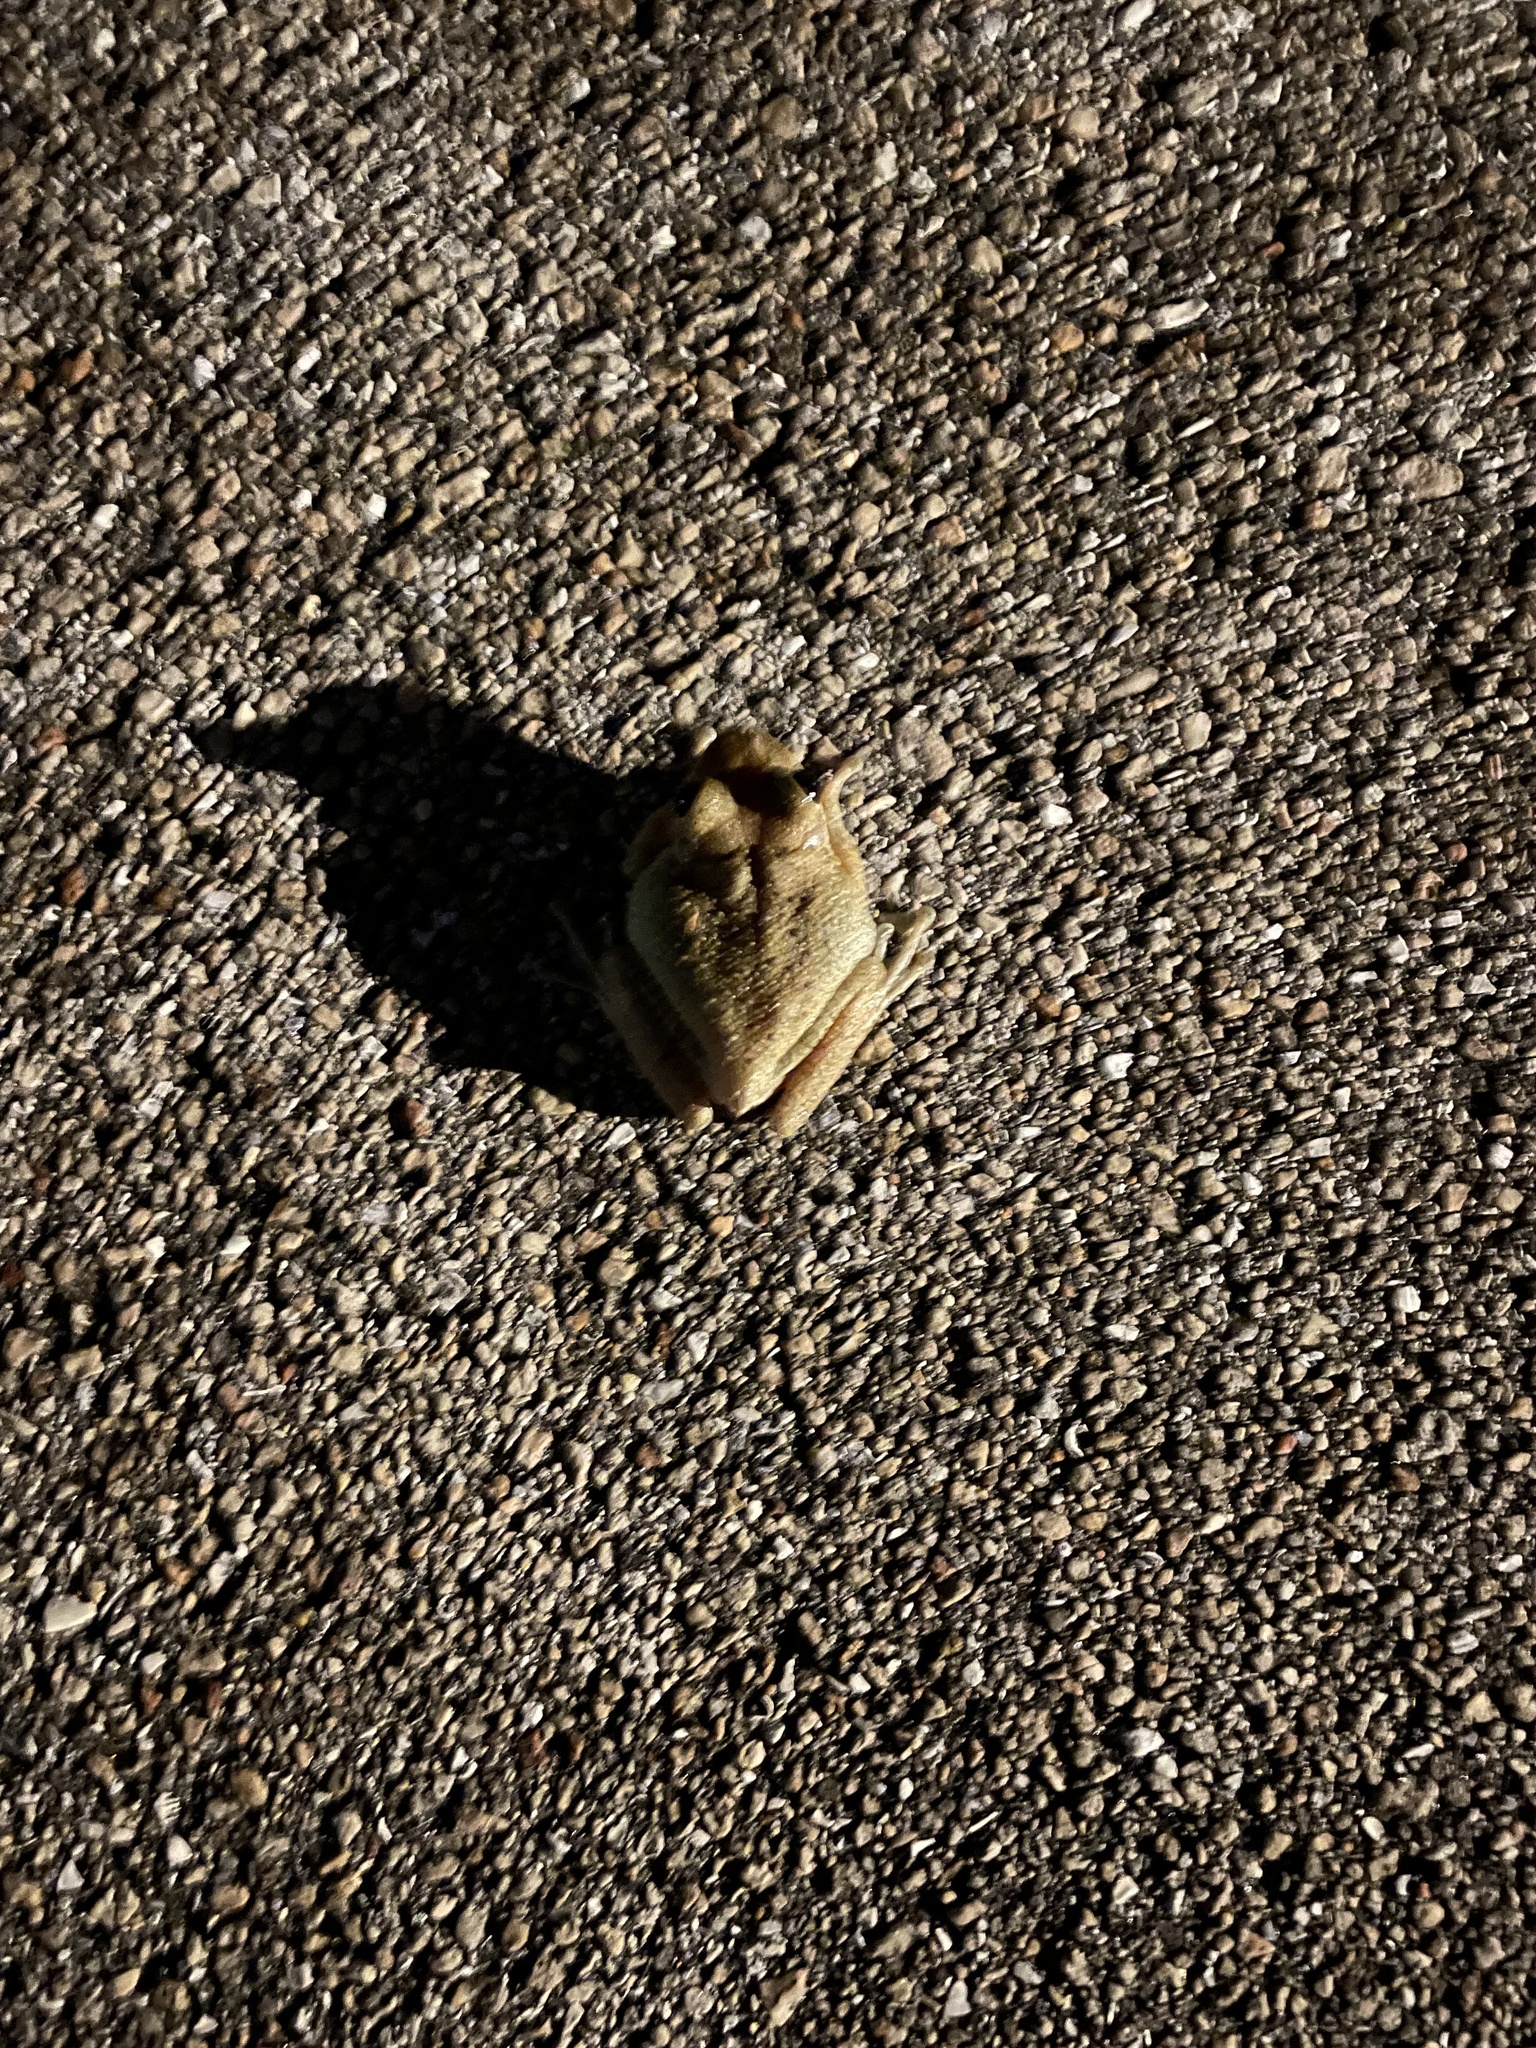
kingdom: Animalia
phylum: Chordata
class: Amphibia
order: Anura
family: Hylidae
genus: Osteopilus
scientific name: Osteopilus septentrionalis
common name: Cuban treefrog
